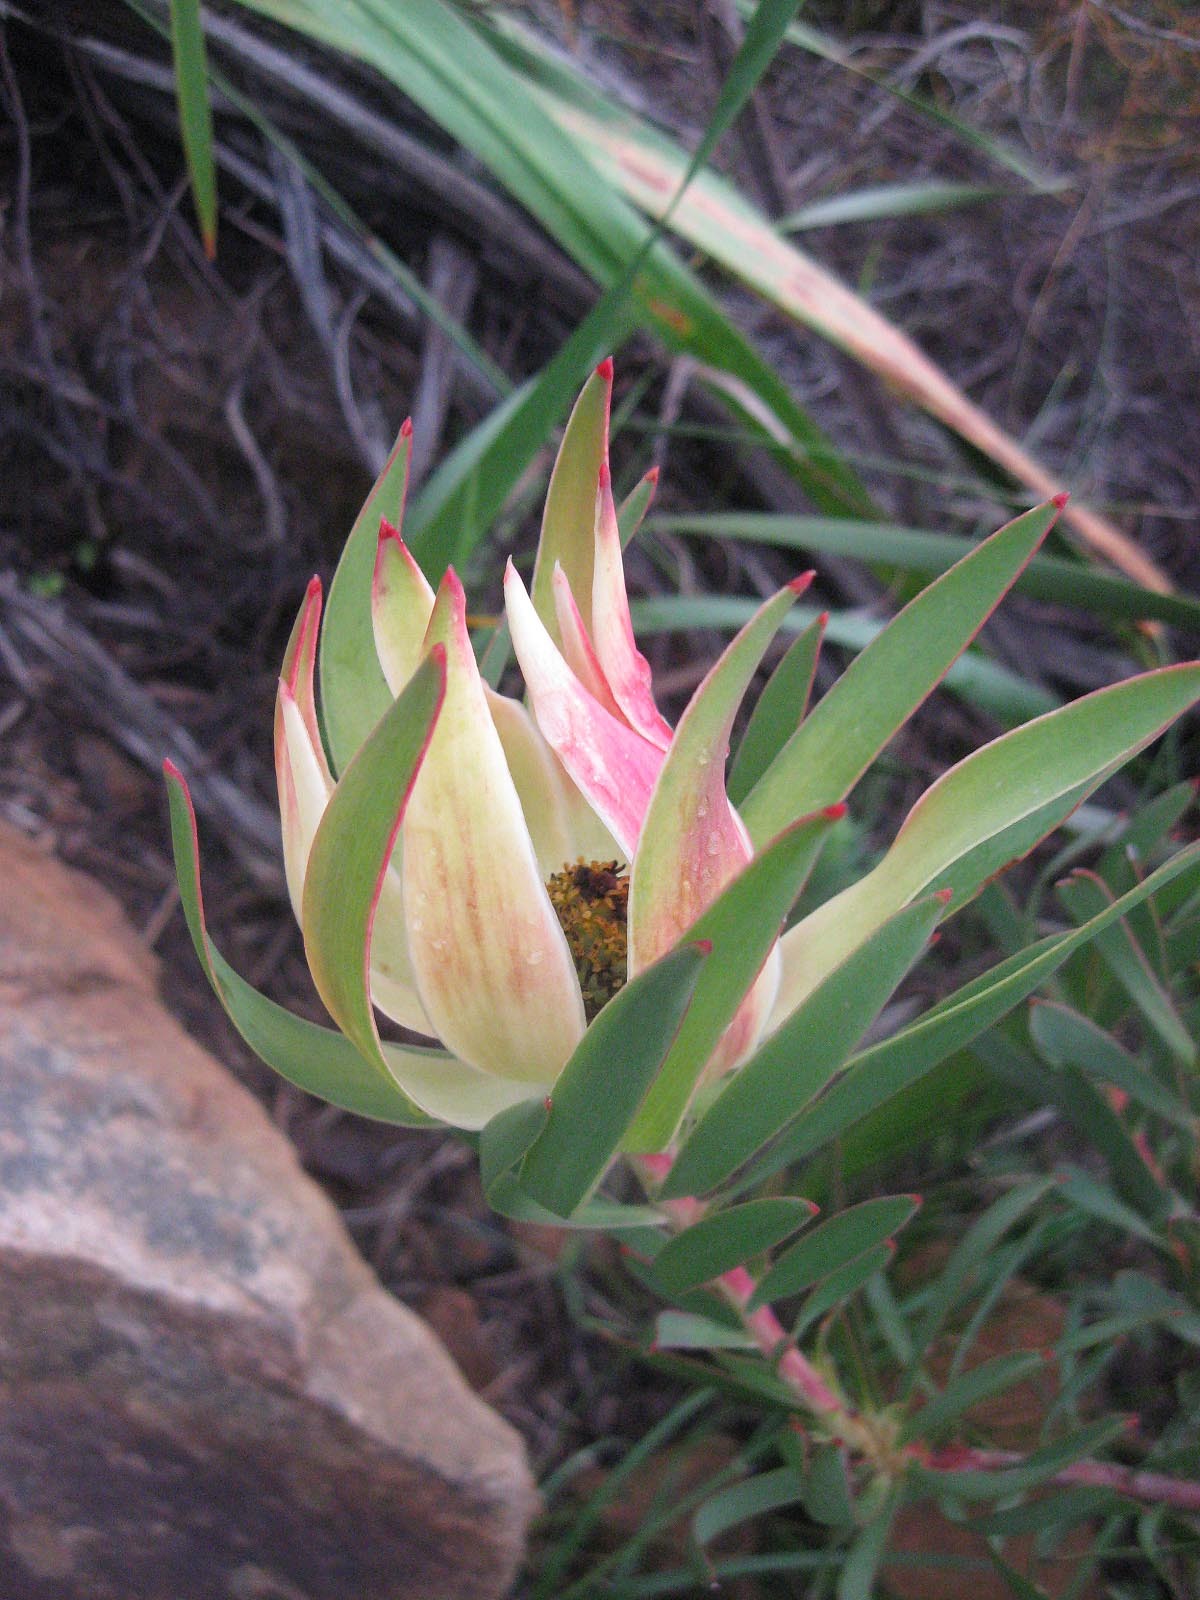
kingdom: Plantae
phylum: Tracheophyta
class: Magnoliopsida
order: Proteales
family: Proteaceae
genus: Leucadendron
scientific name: Leucadendron salignum
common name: Common sunshine conebush
